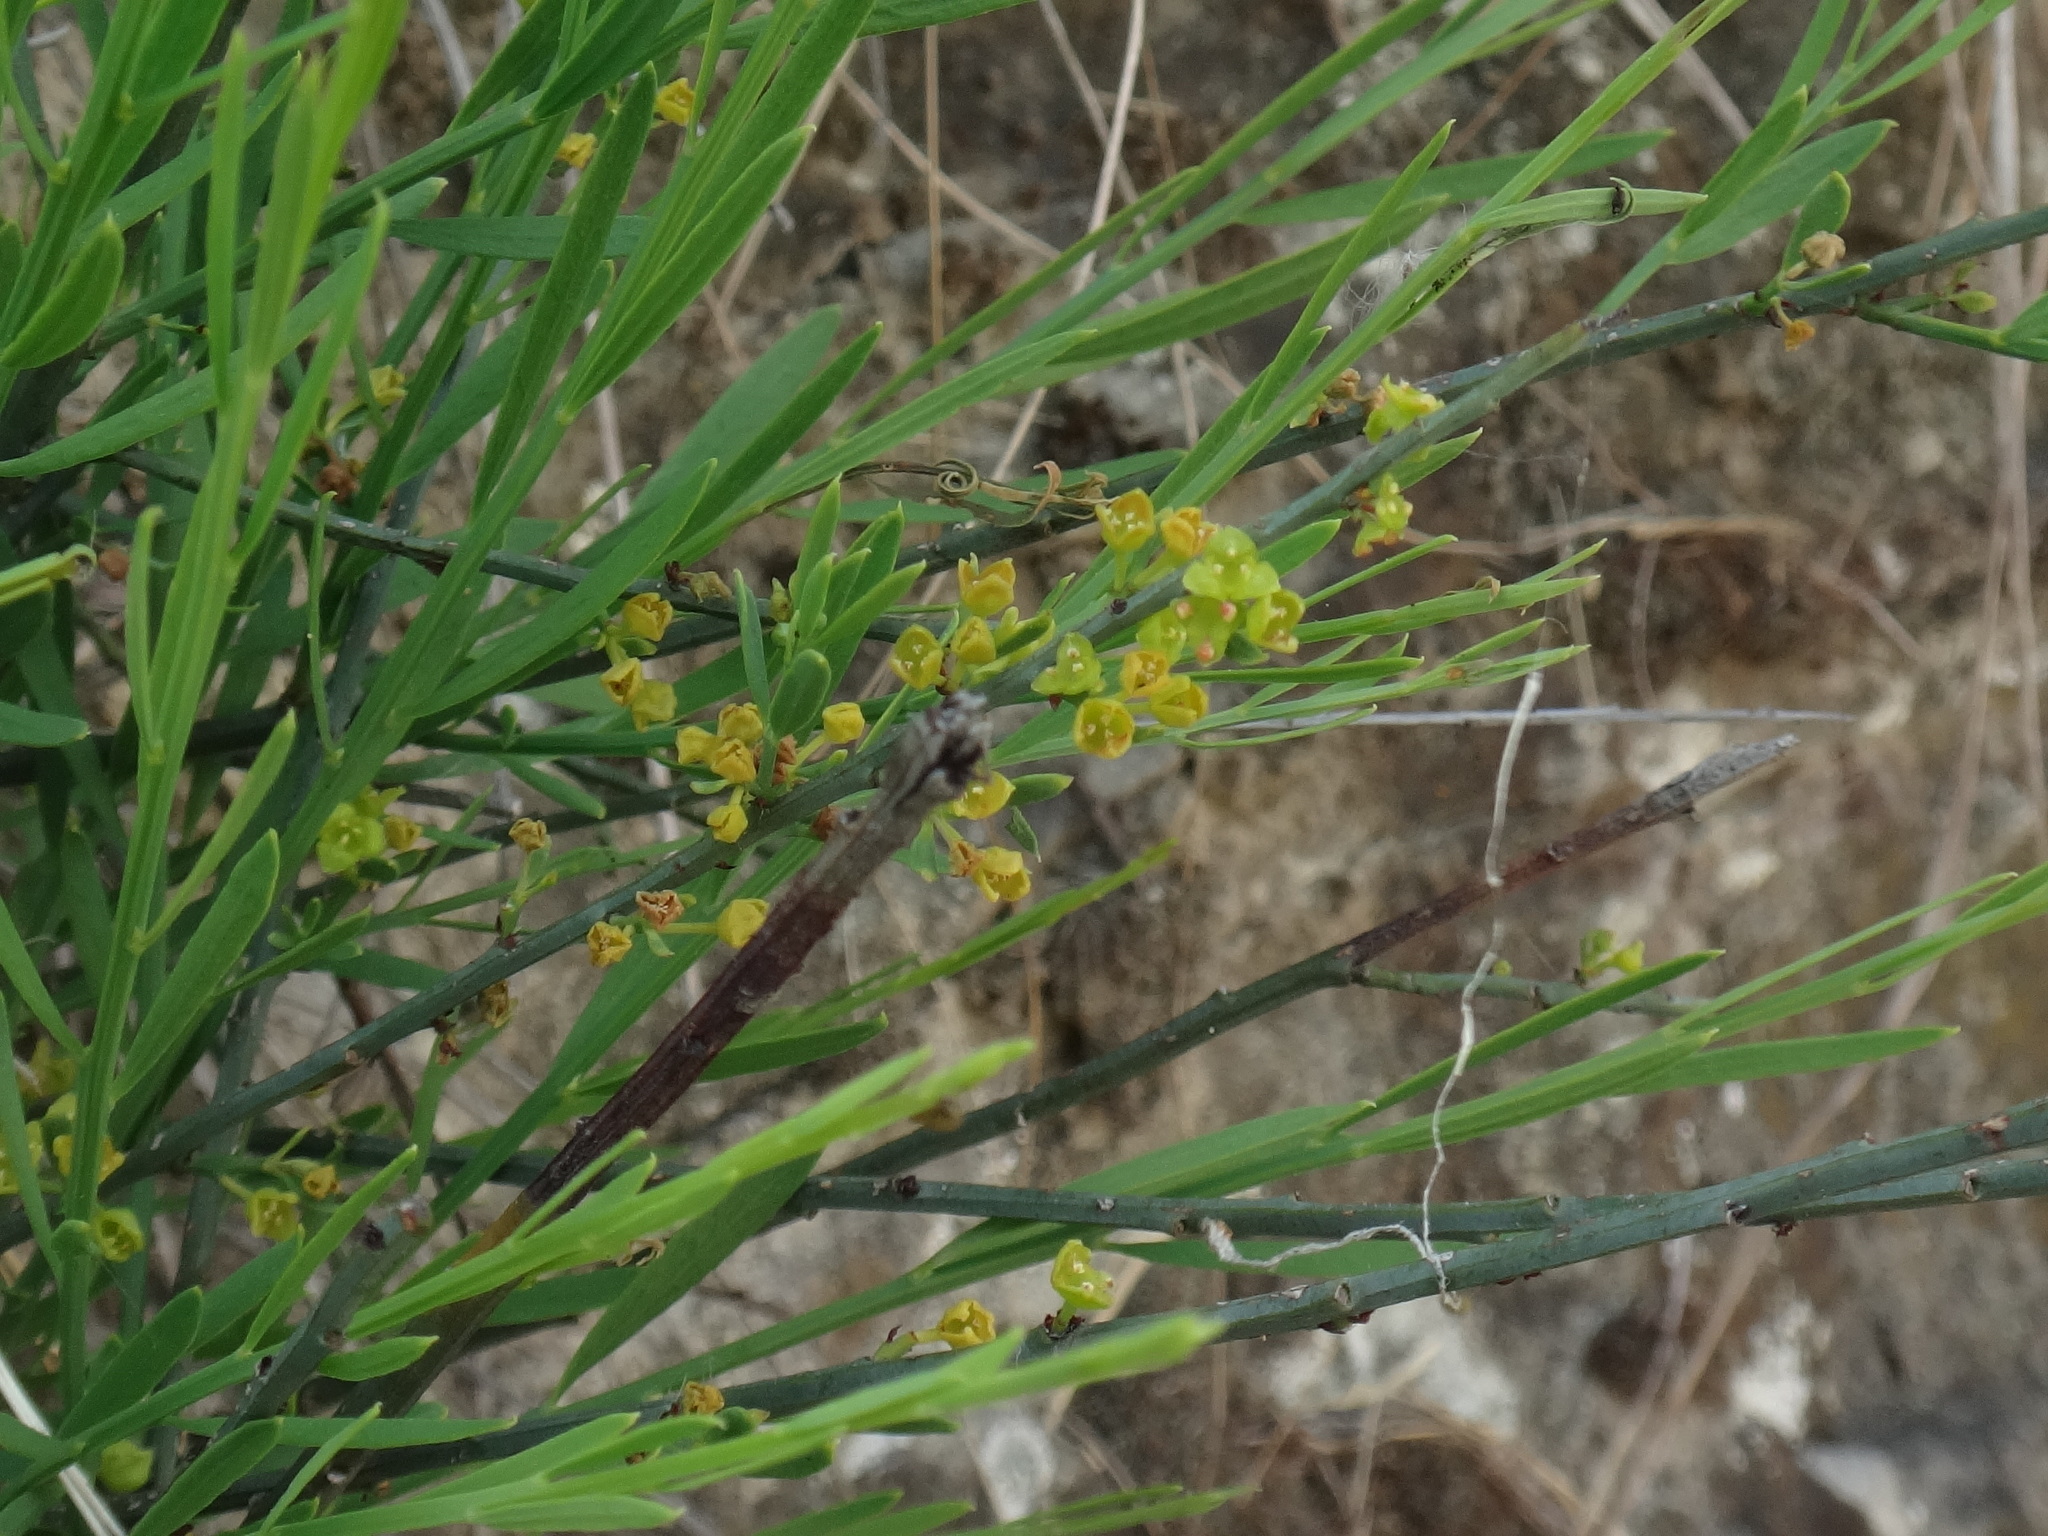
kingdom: Plantae
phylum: Tracheophyta
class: Magnoliopsida
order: Santalales
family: Santalaceae
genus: Osyris
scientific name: Osyris alba
